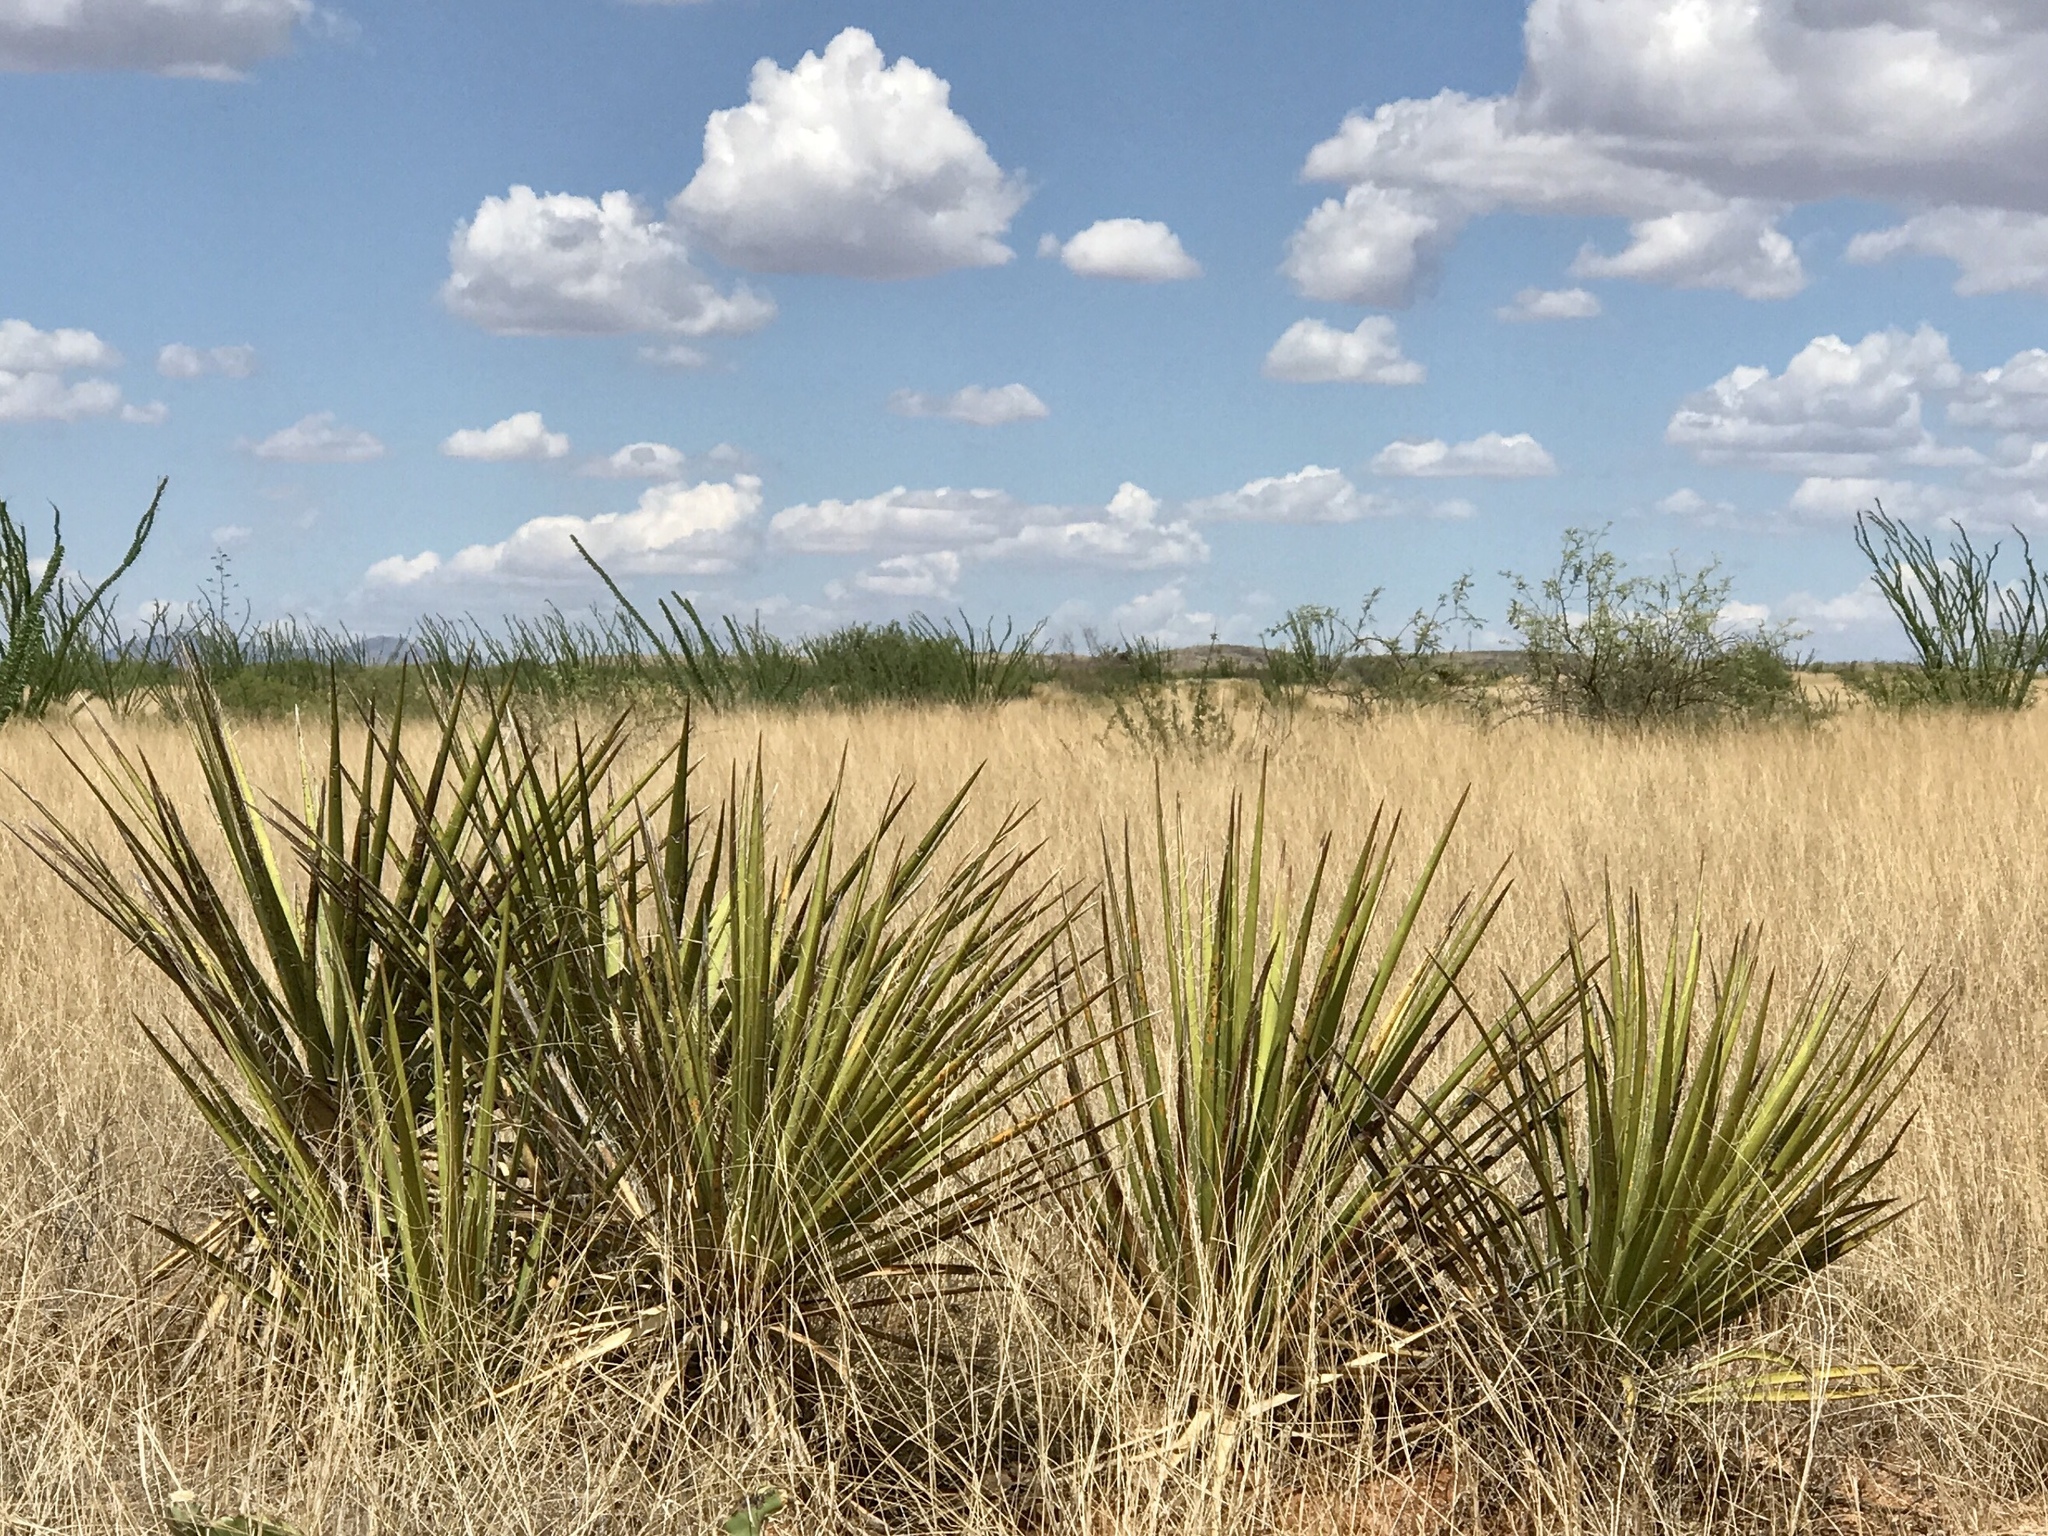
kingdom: Plantae
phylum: Tracheophyta
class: Liliopsida
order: Asparagales
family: Asparagaceae
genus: Yucca
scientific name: Yucca baccata
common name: Banana yucca
